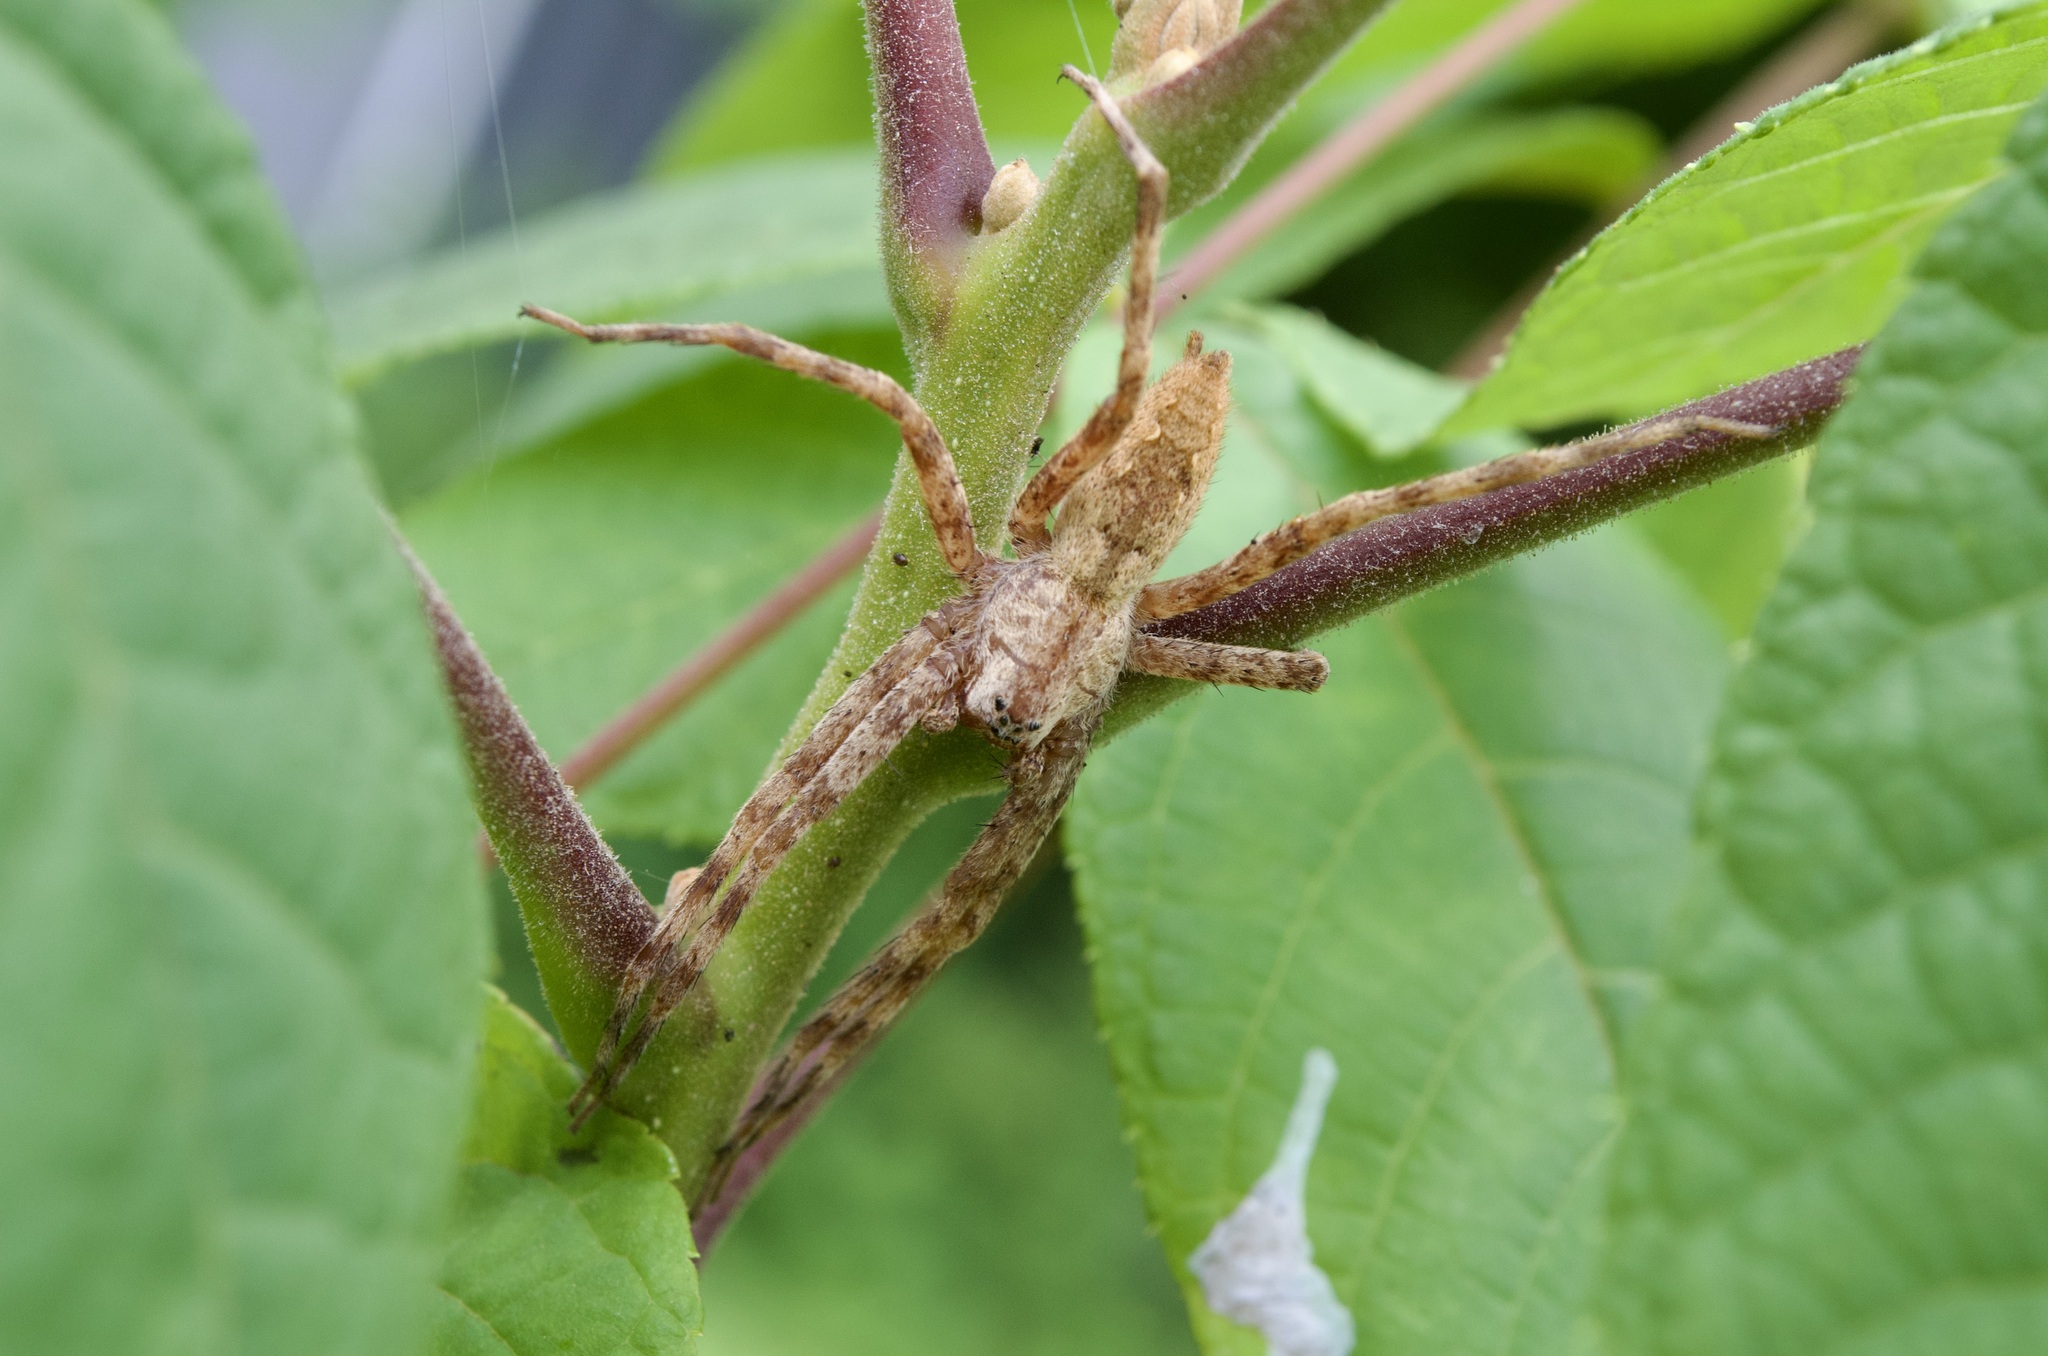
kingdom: Animalia
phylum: Arthropoda
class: Arachnida
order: Araneae
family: Pisauridae
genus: Pisaurina
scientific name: Pisaurina mira
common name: American nursery web spider
